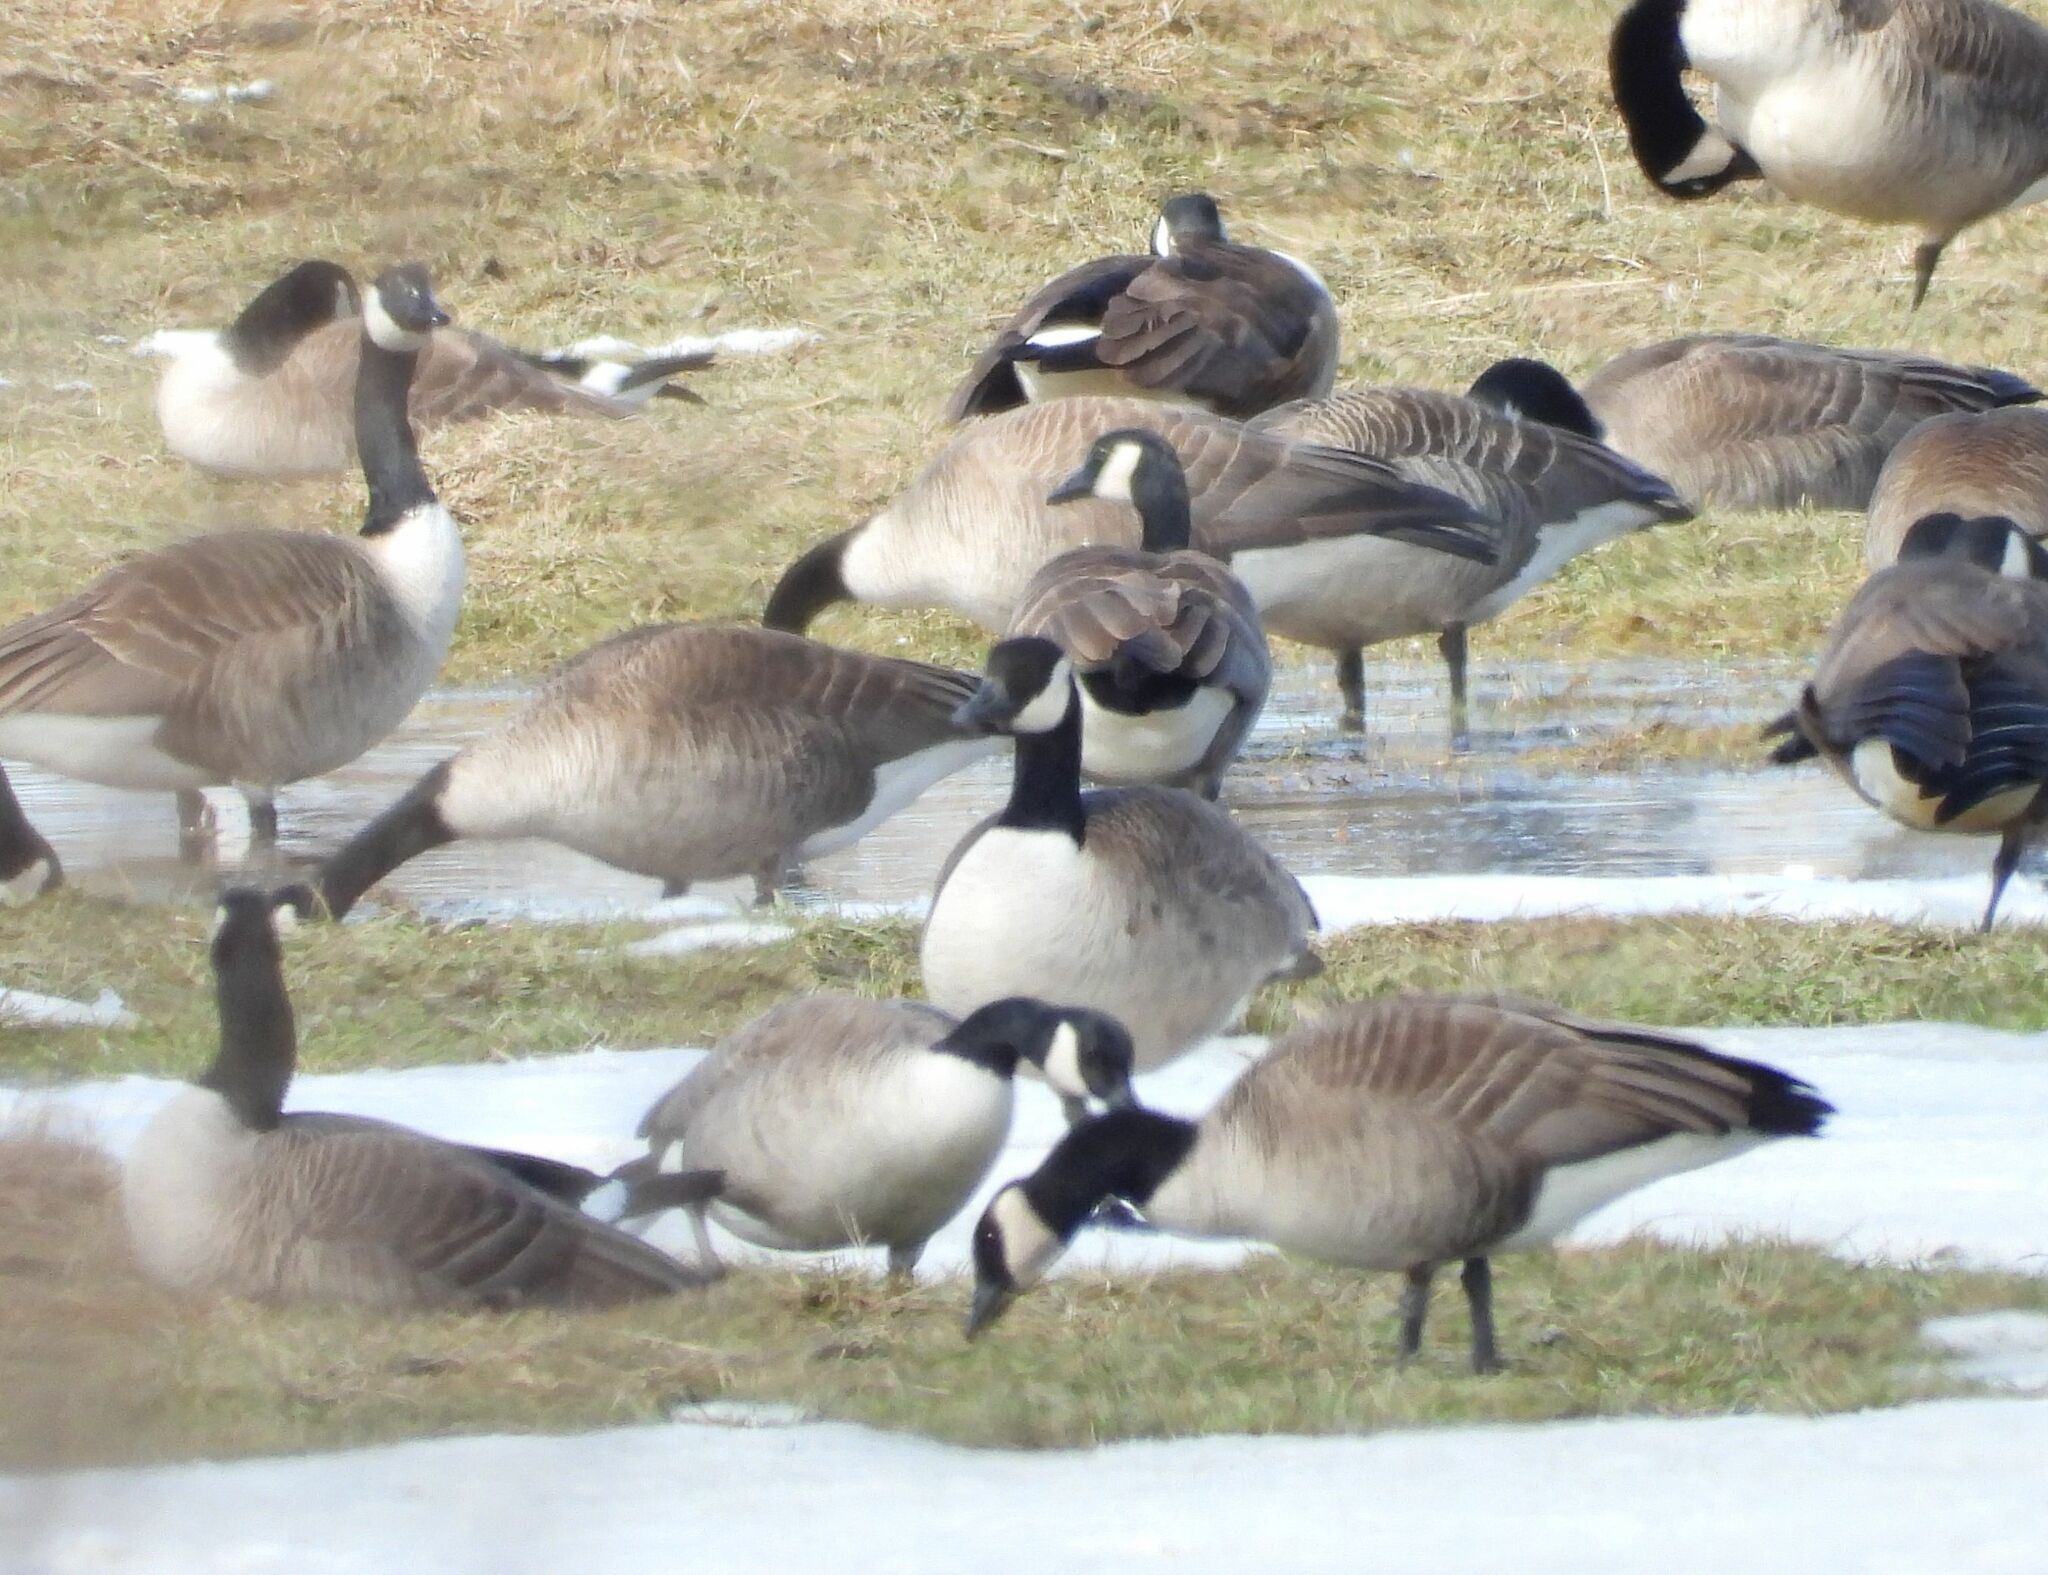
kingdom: Animalia
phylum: Chordata
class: Aves
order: Anseriformes
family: Anatidae
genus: Branta
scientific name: Branta canadensis
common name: Canada goose
